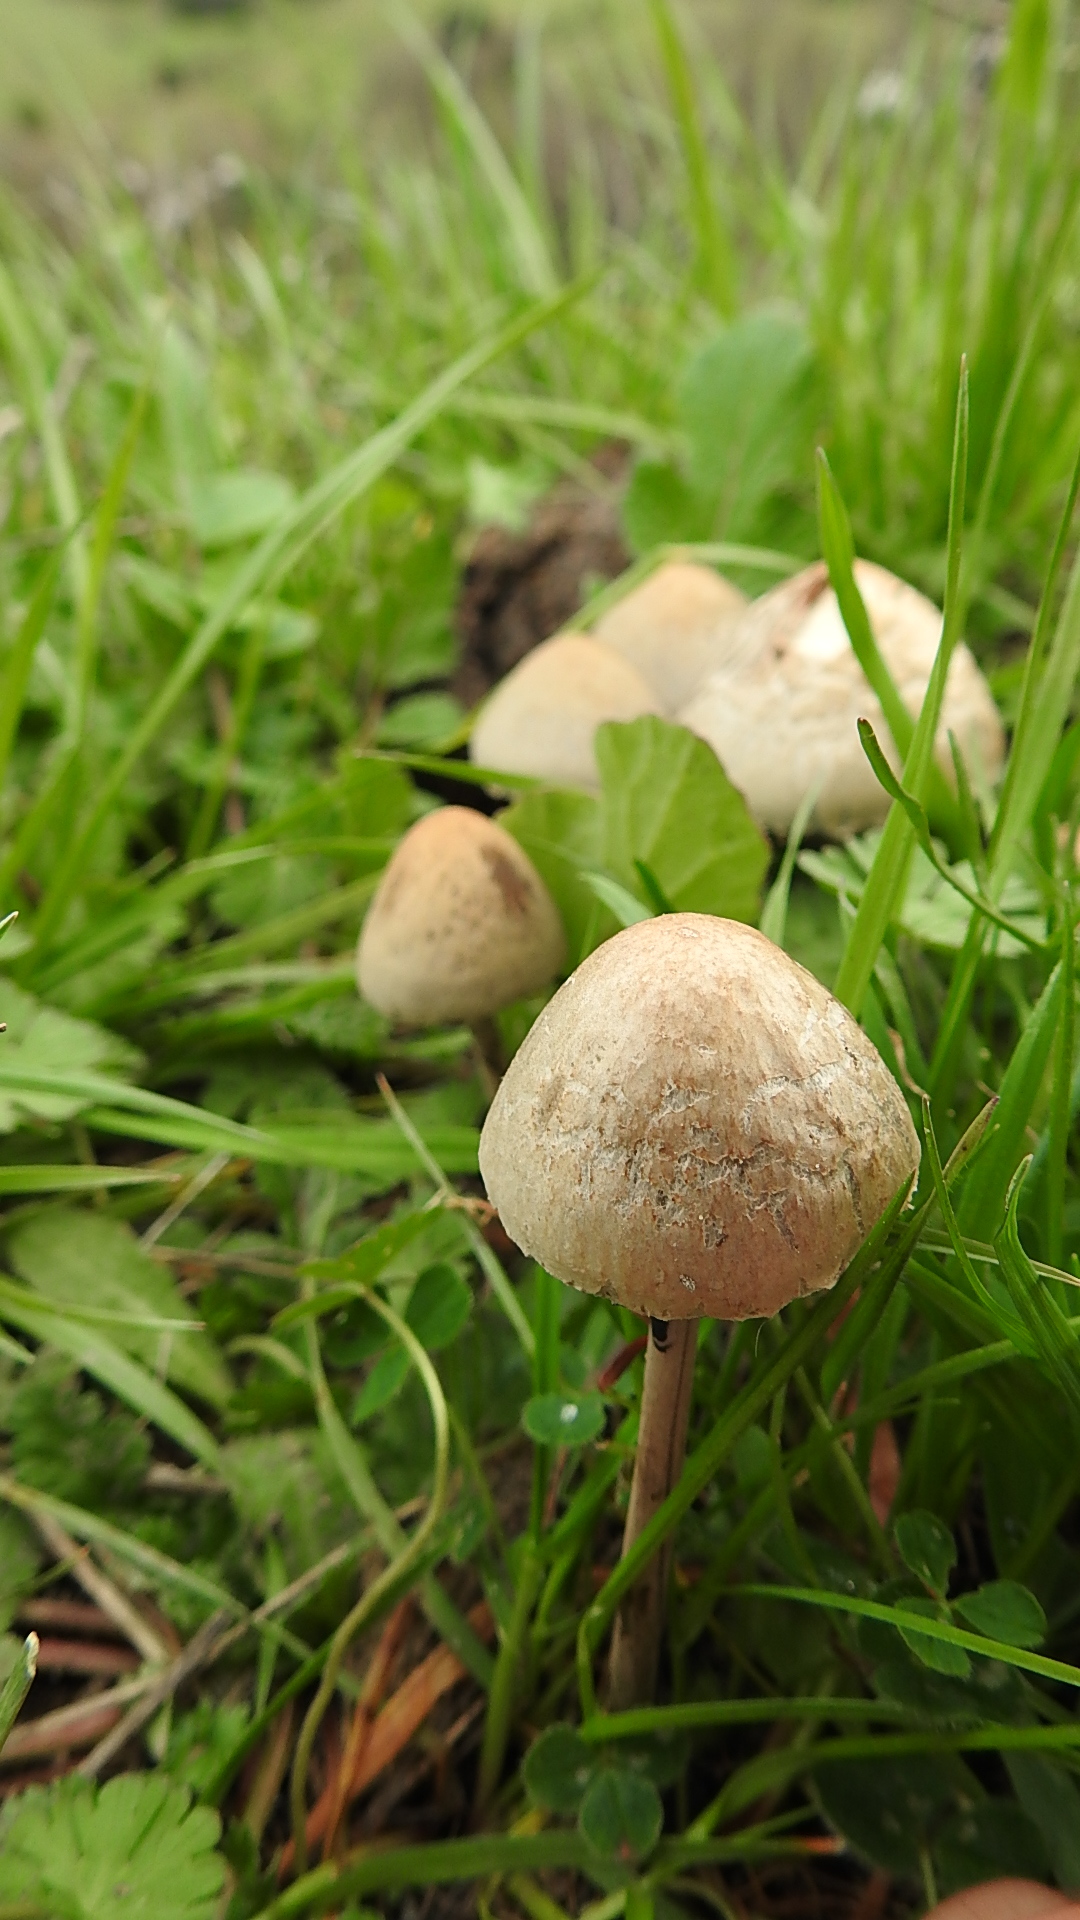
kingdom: Fungi
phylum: Basidiomycota
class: Agaricomycetes
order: Agaricales
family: Bolbitiaceae
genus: Panaeolus
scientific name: Panaeolus papilionaceus
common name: Petticoat mottlegill
